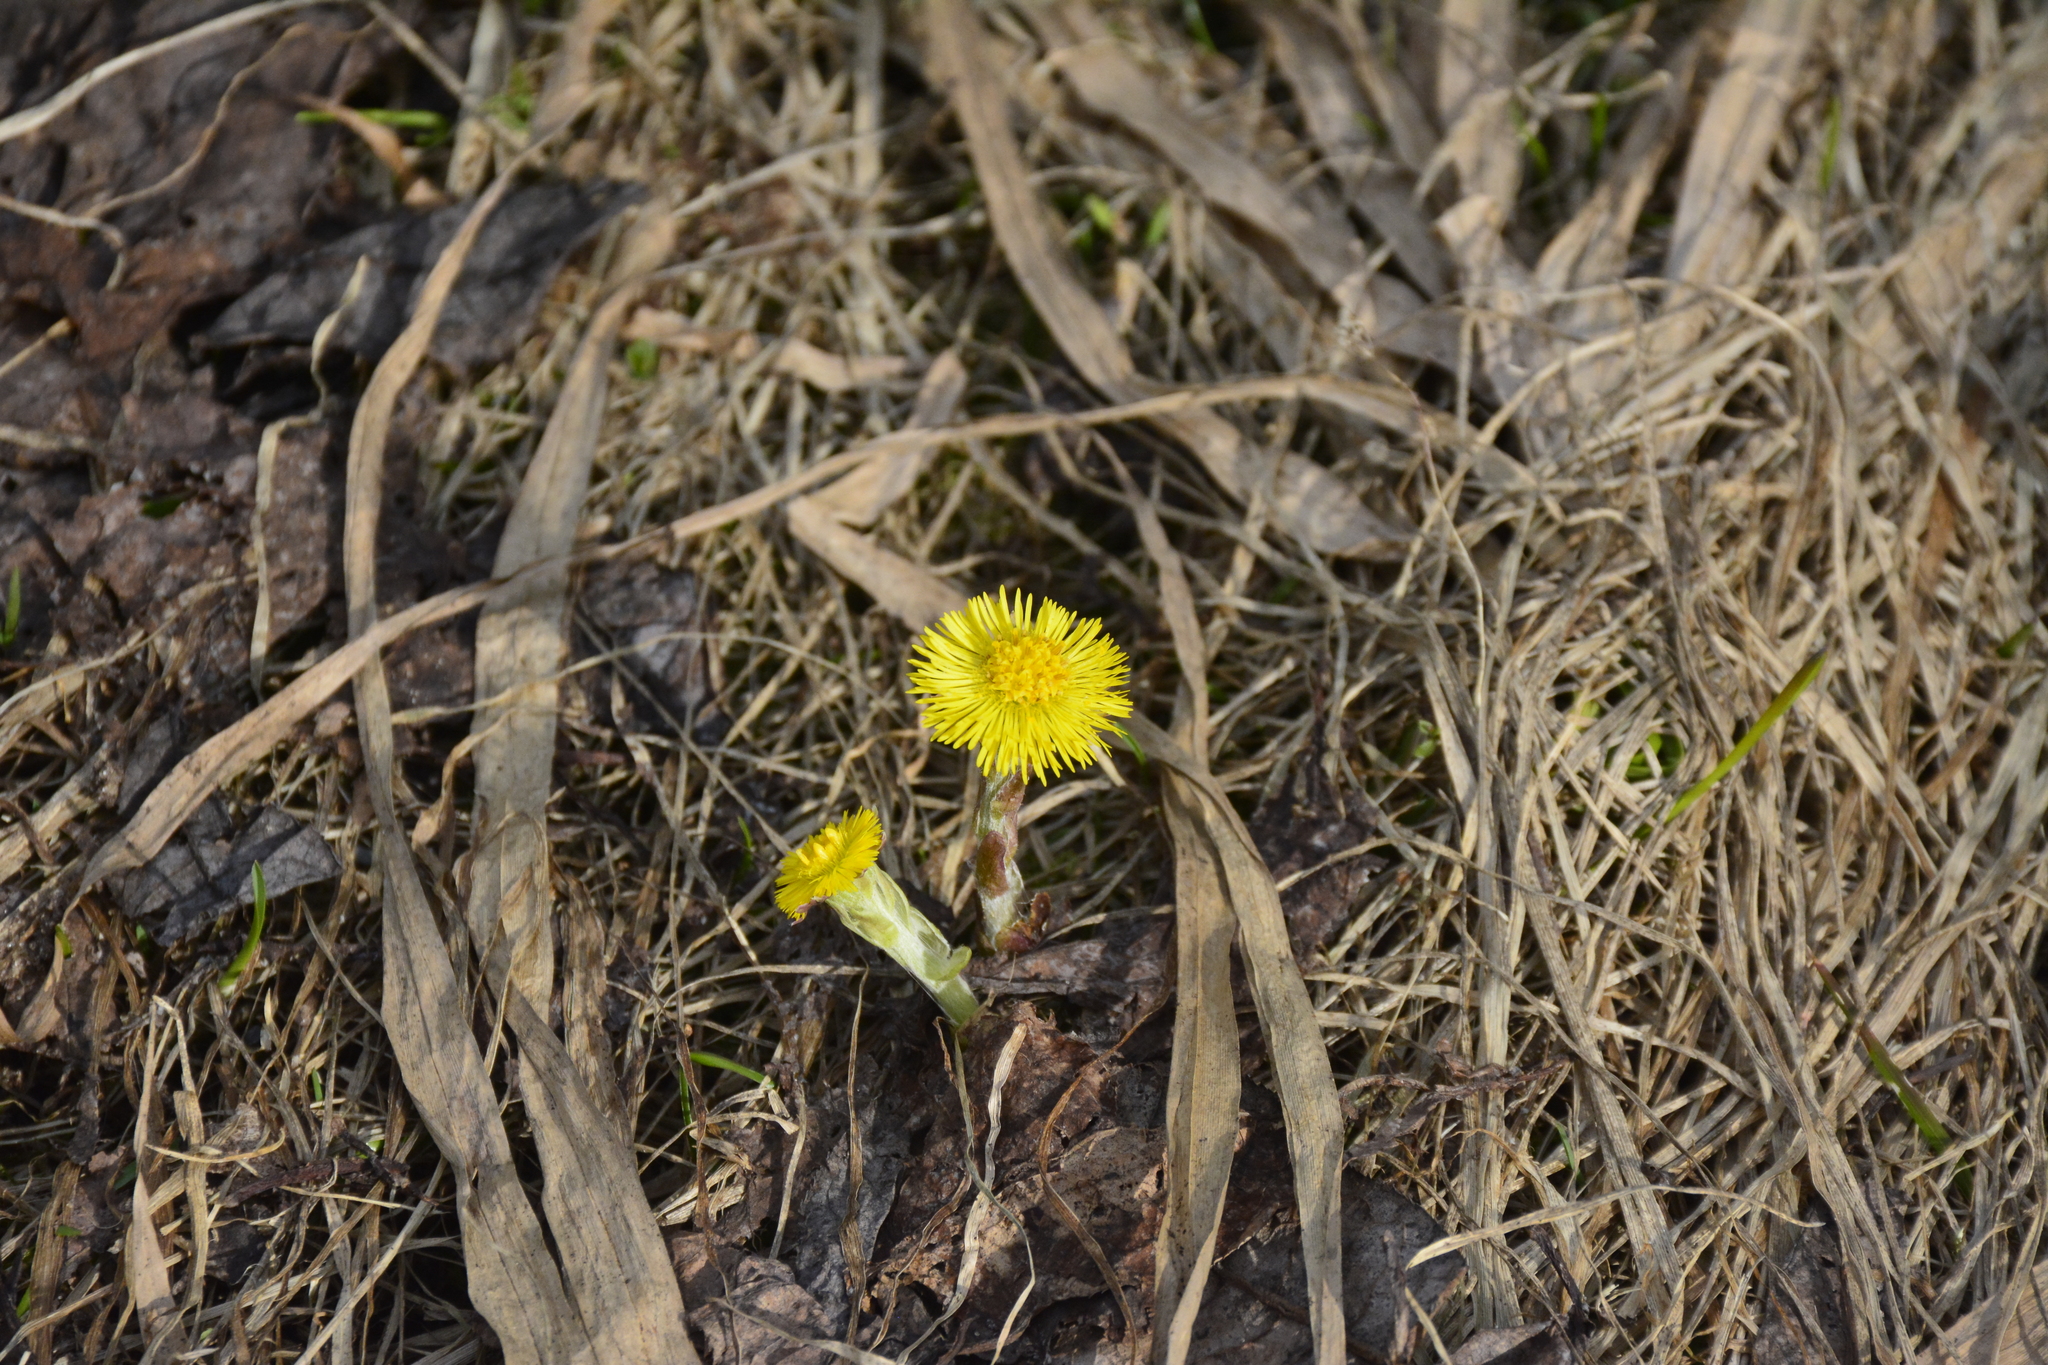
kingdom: Plantae
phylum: Tracheophyta
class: Magnoliopsida
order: Asterales
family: Asteraceae
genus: Tussilago
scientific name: Tussilago farfara
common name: Coltsfoot
